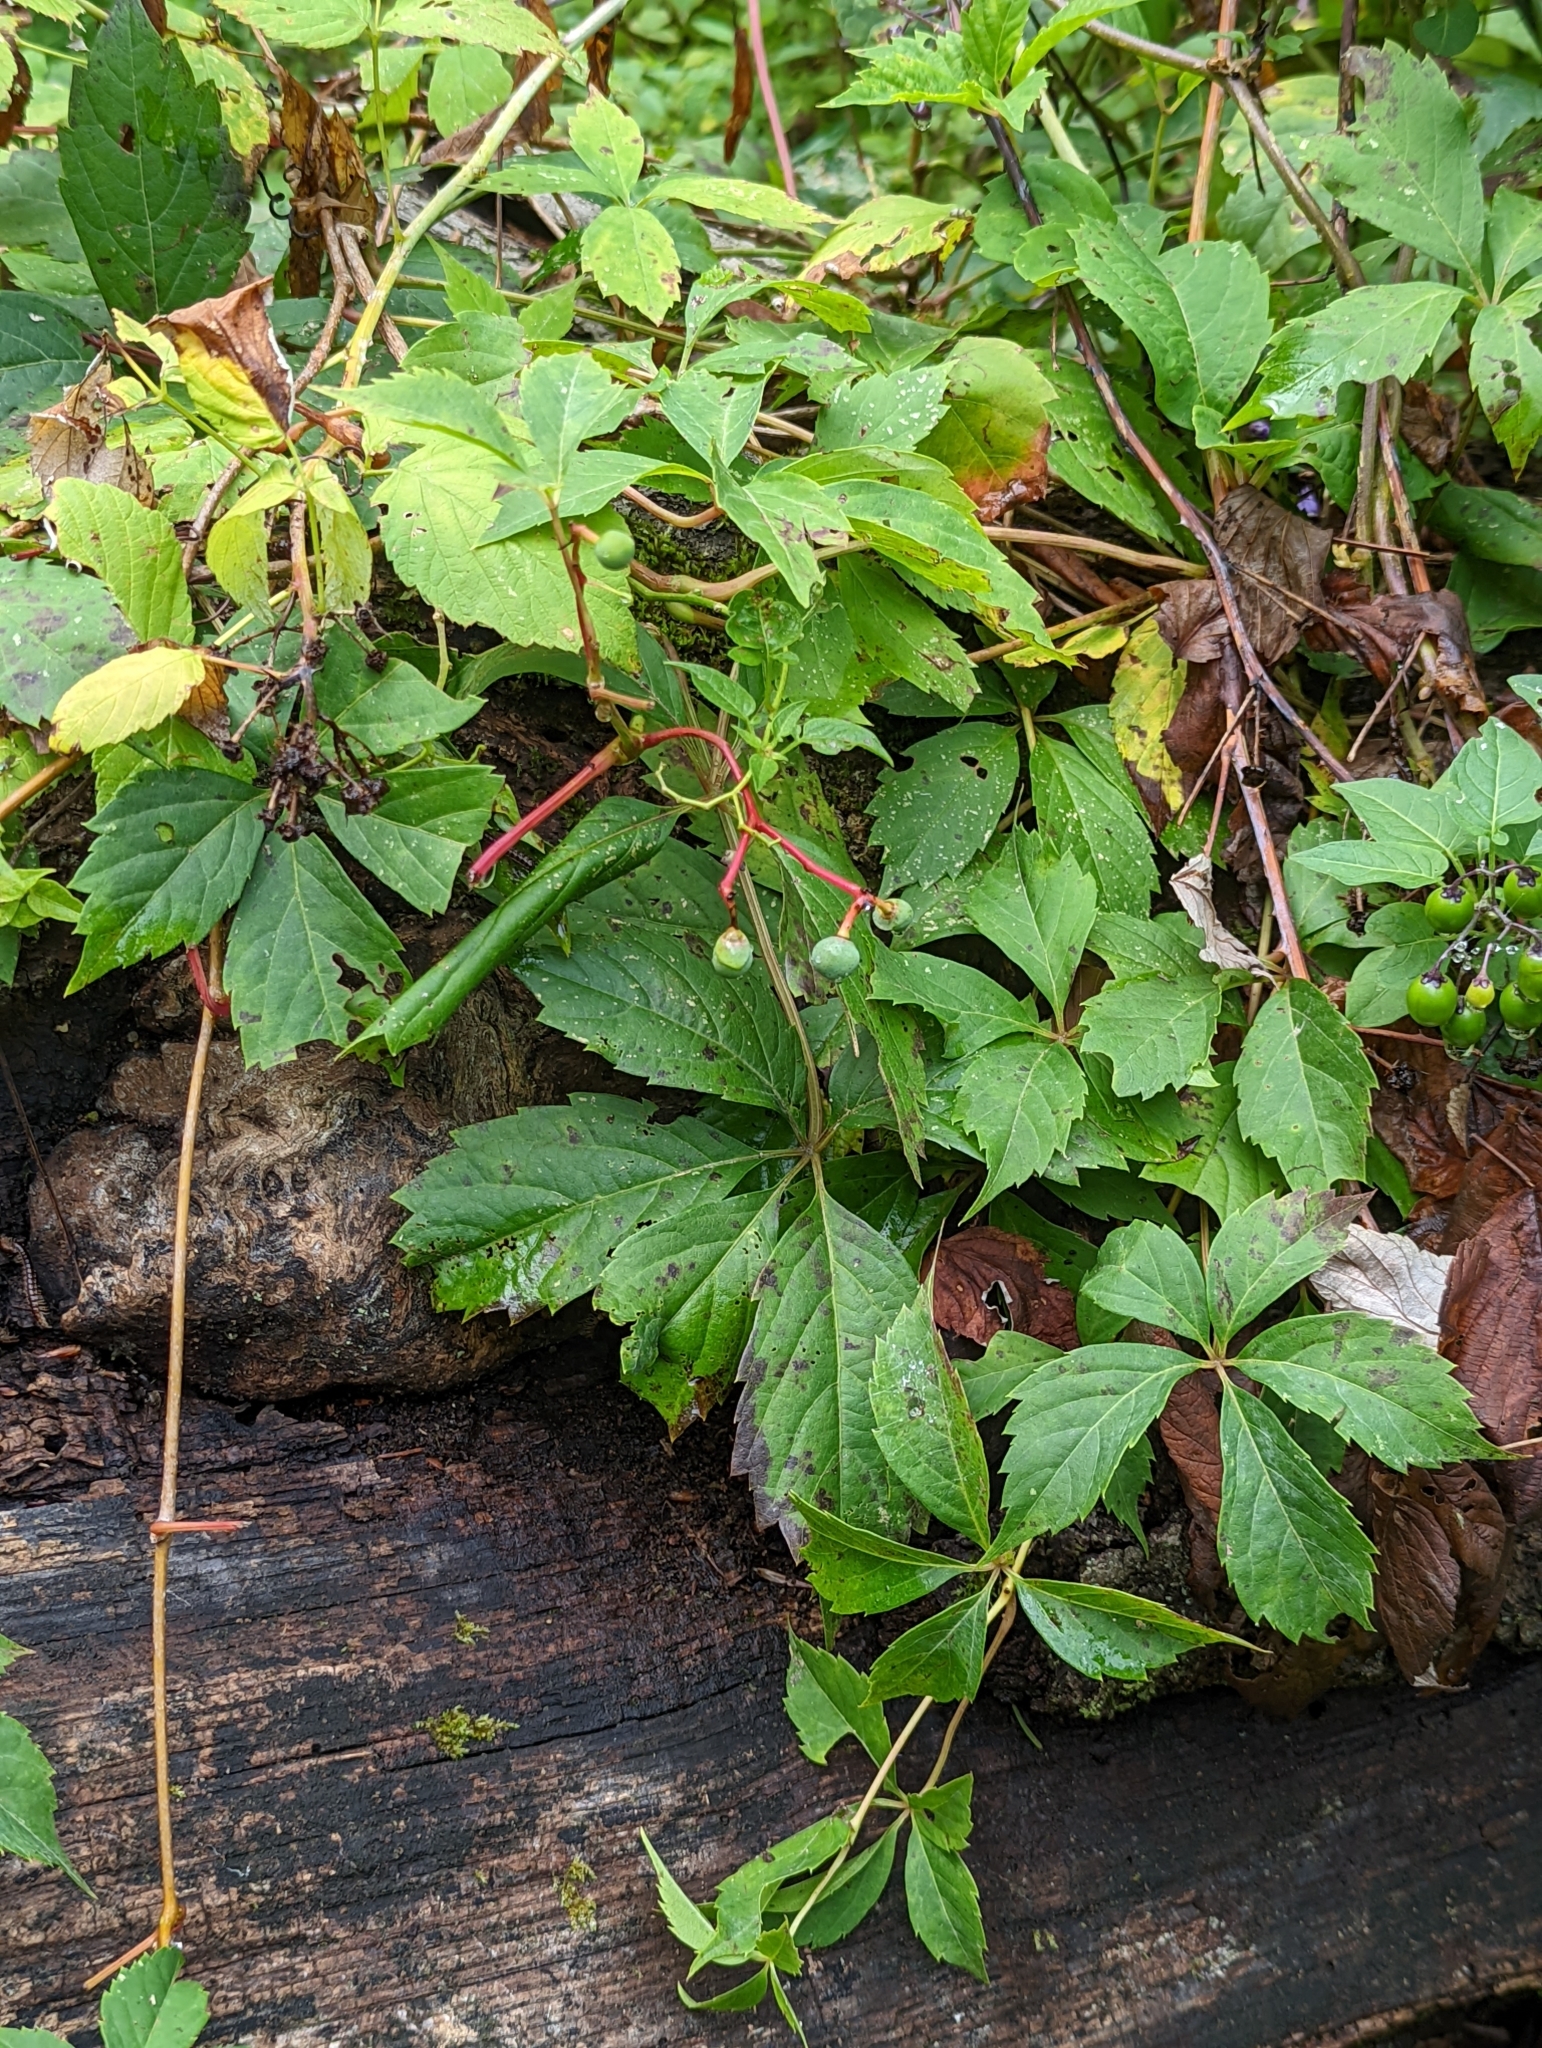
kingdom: Plantae
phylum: Tracheophyta
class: Magnoliopsida
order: Vitales
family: Vitaceae
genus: Parthenocissus
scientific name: Parthenocissus quinquefolia
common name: Virginia-creeper
